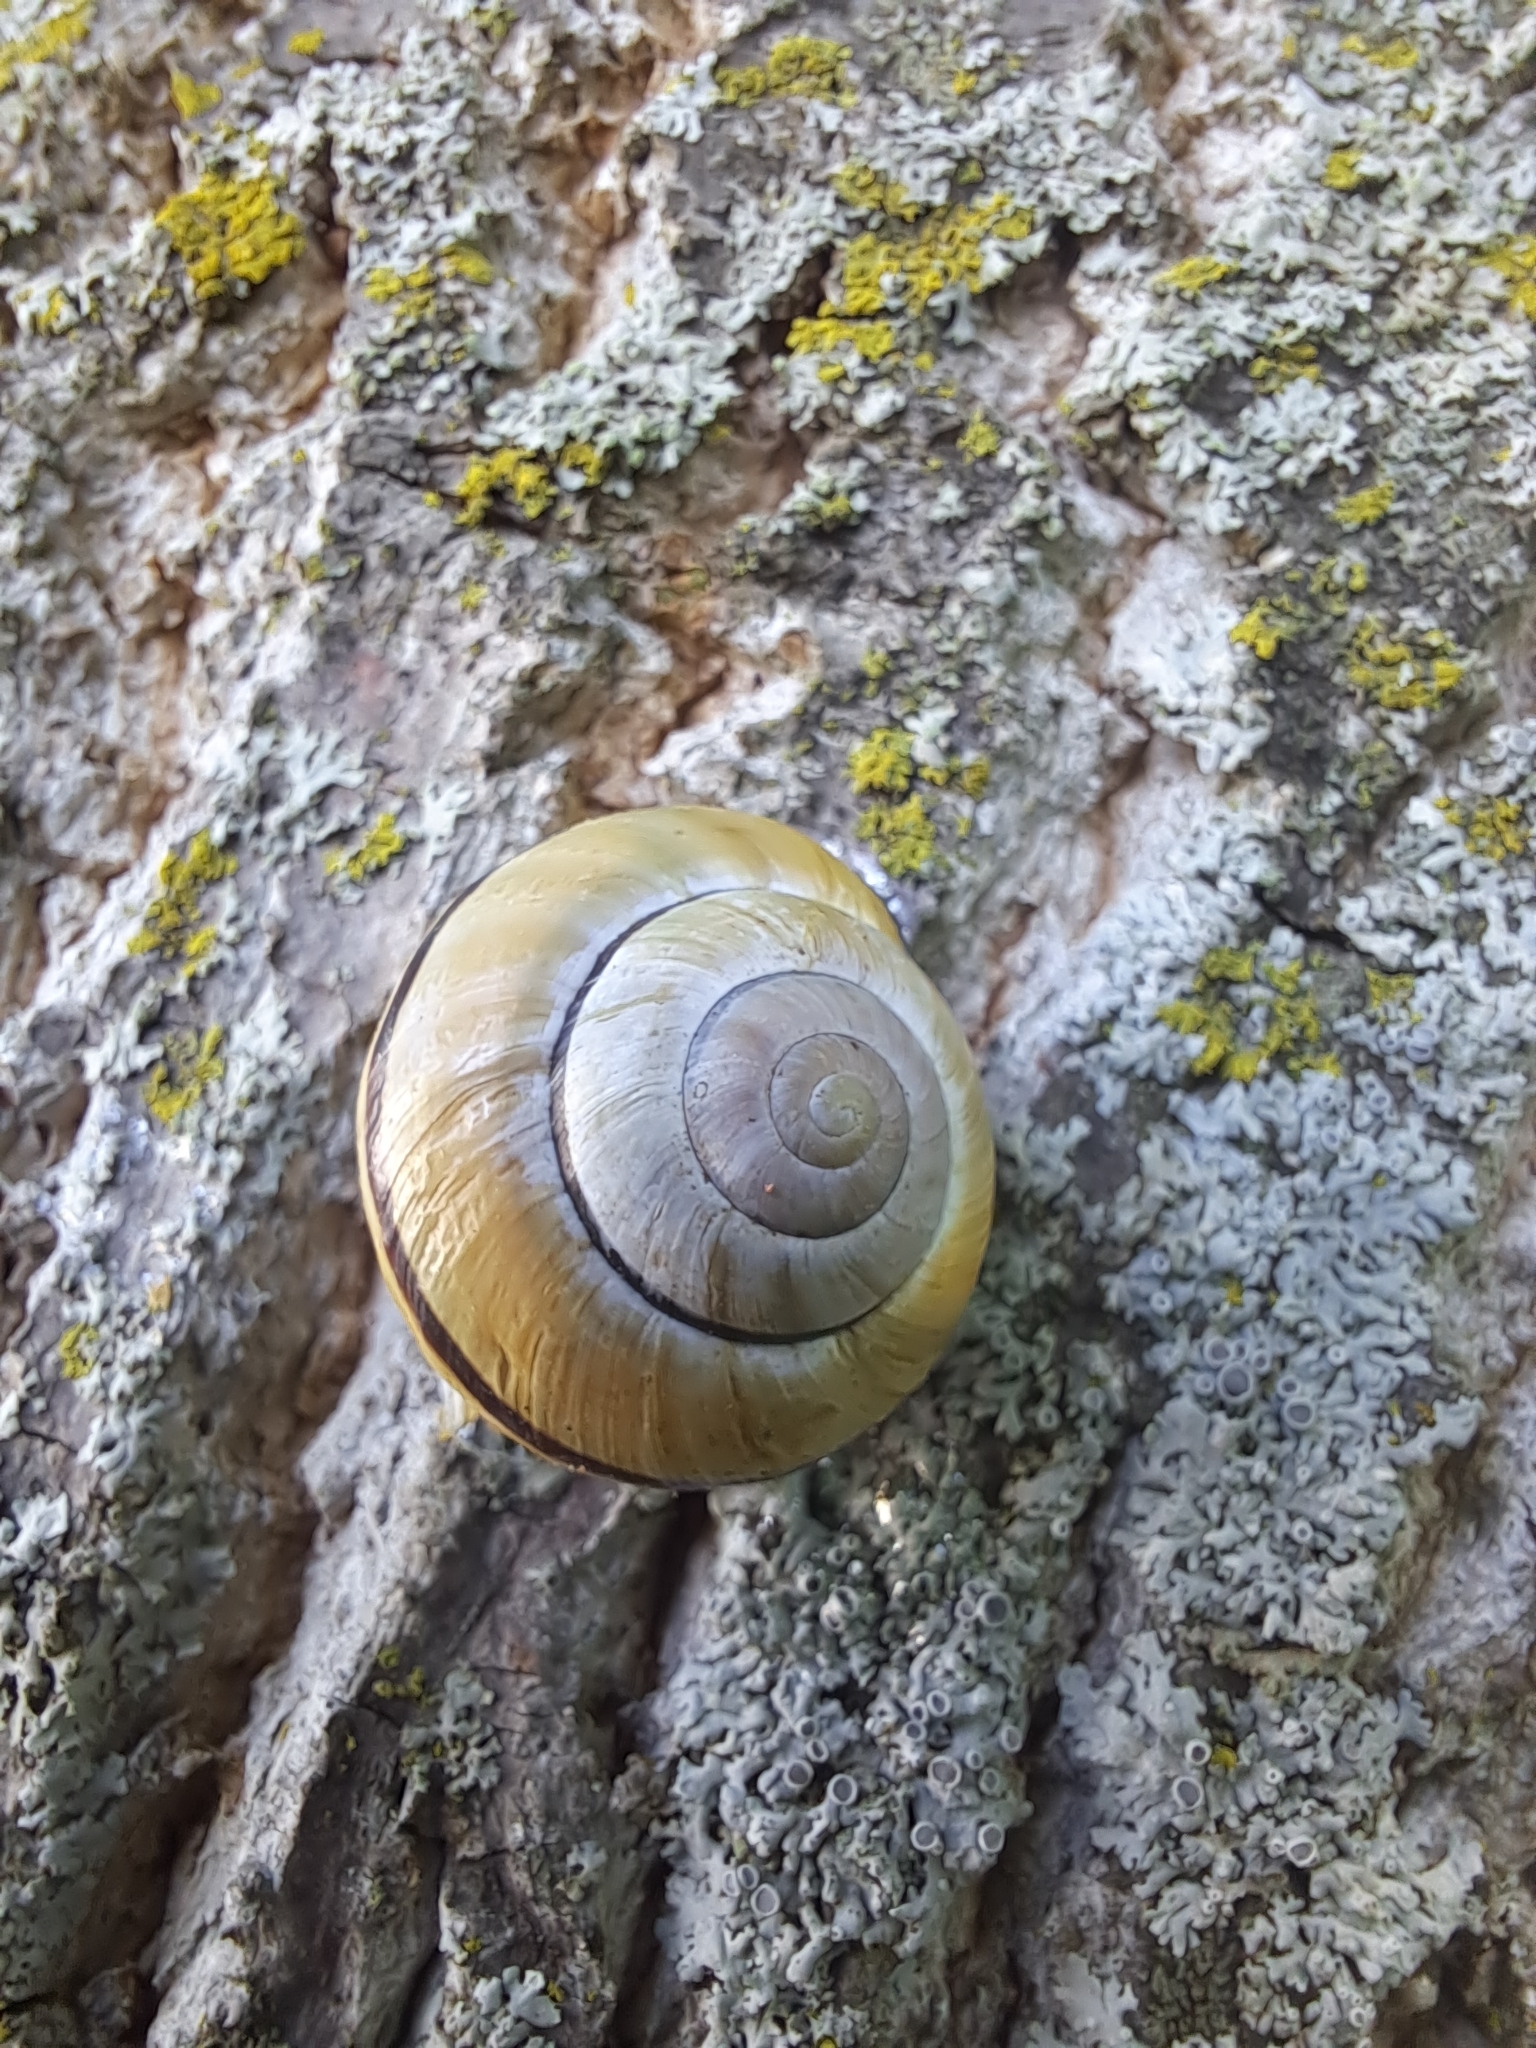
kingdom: Animalia
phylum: Mollusca
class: Gastropoda
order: Stylommatophora
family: Helicidae
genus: Cepaea
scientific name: Cepaea nemoralis
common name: Grovesnail
